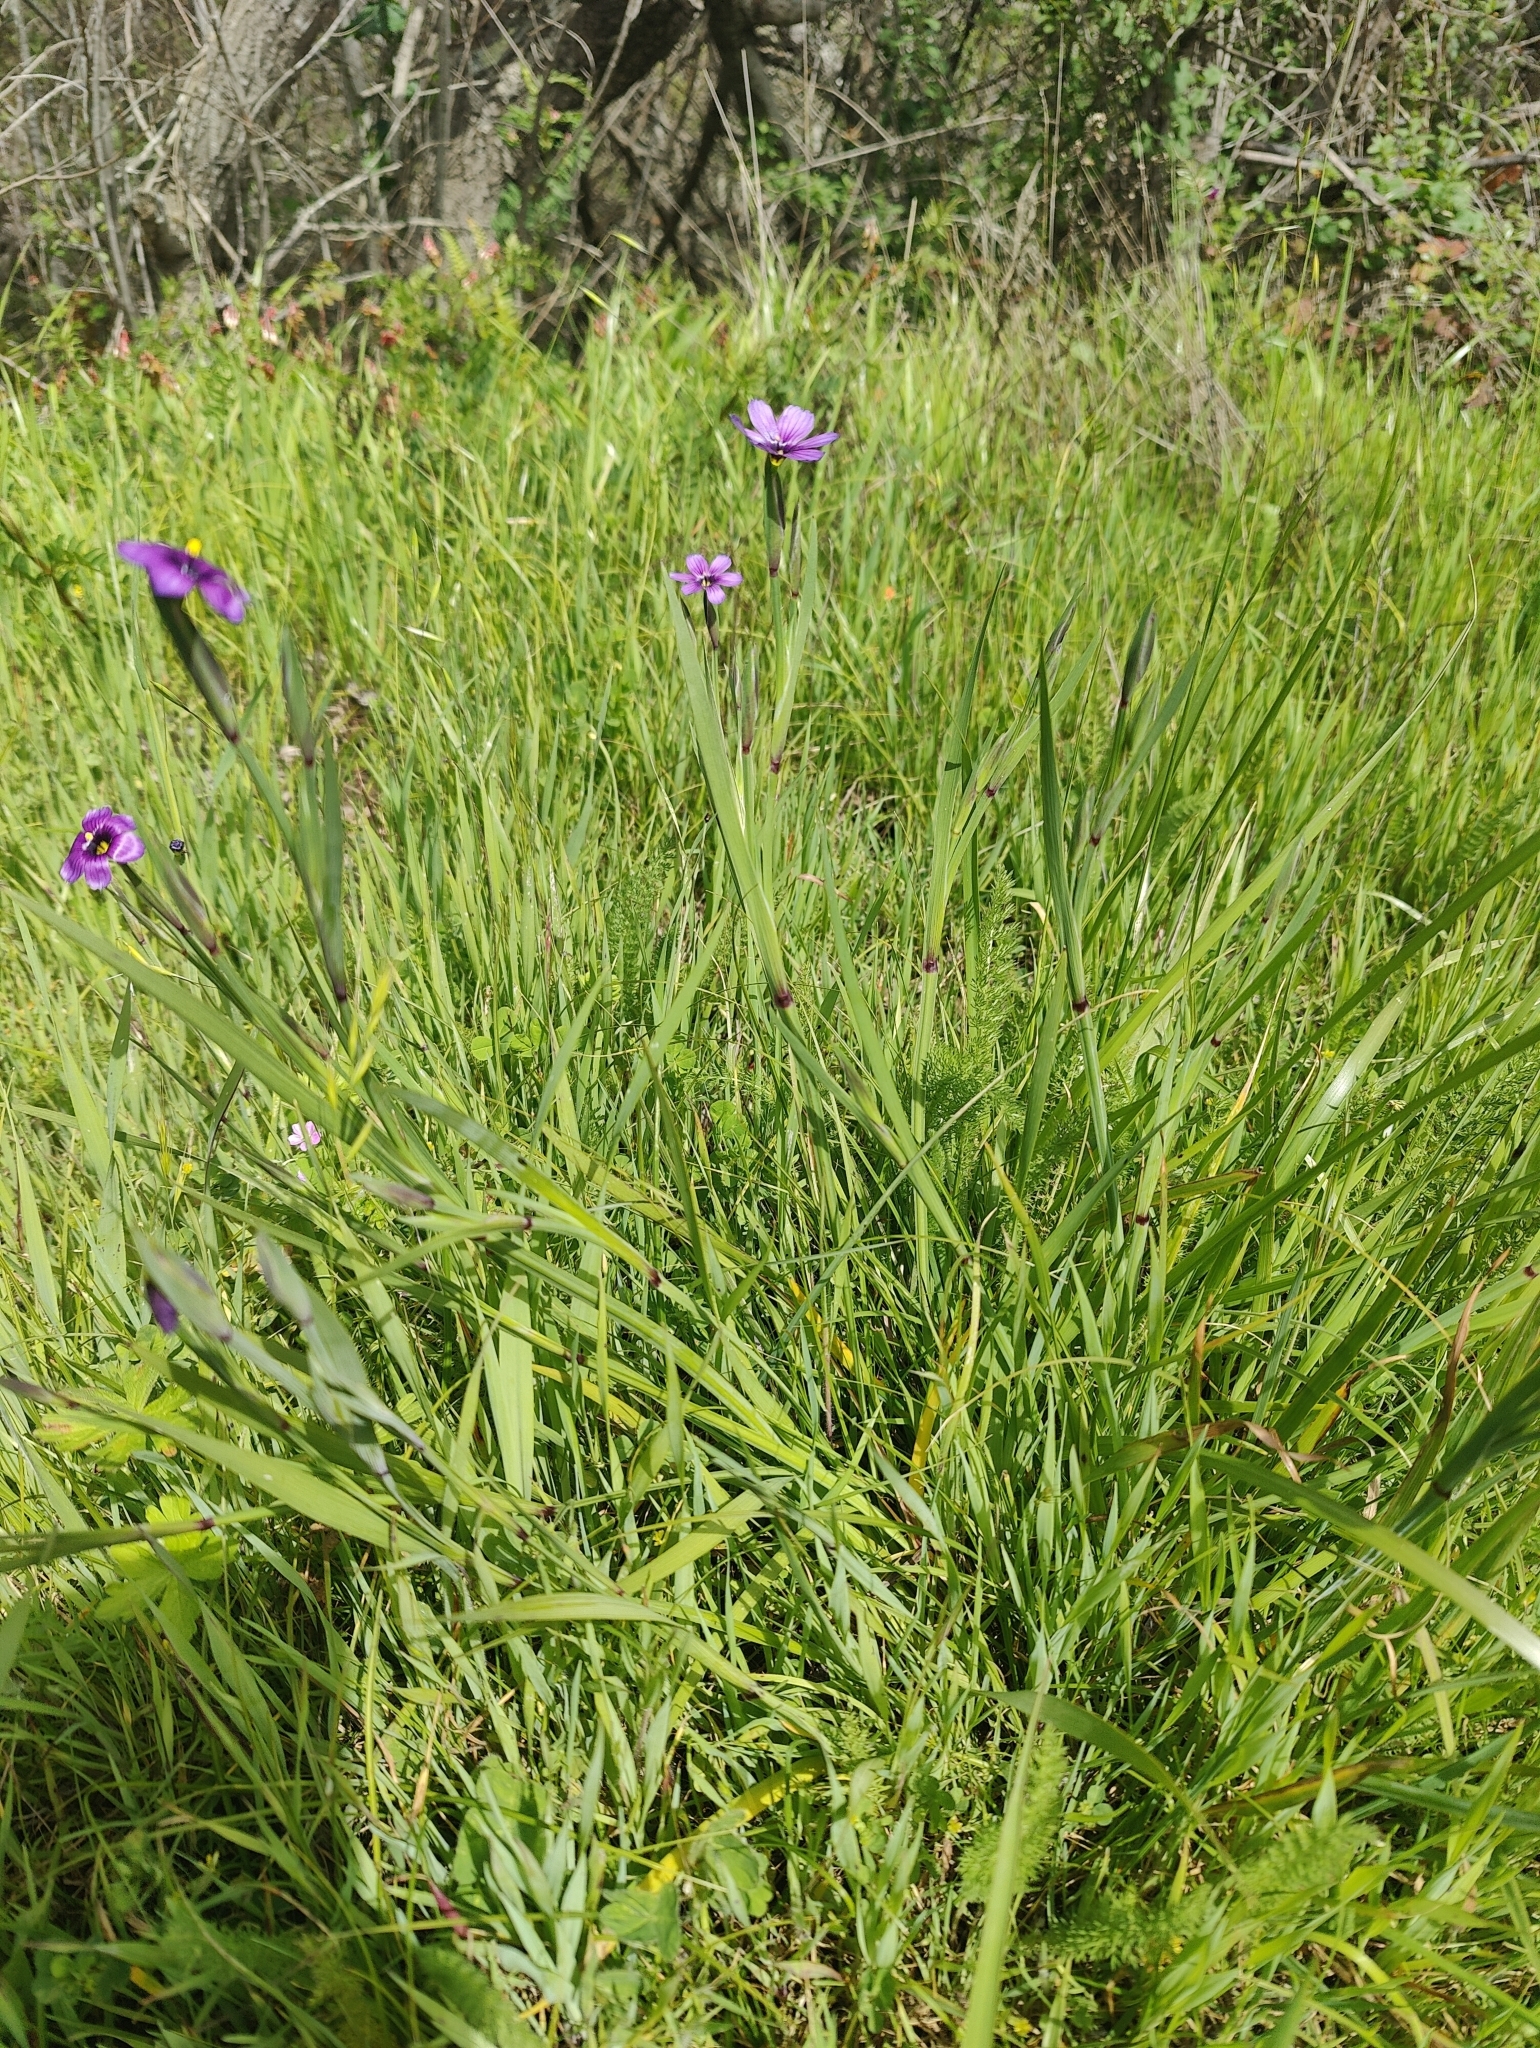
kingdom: Plantae
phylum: Tracheophyta
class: Liliopsida
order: Asparagales
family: Iridaceae
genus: Sisyrinchium
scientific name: Sisyrinchium bellum
